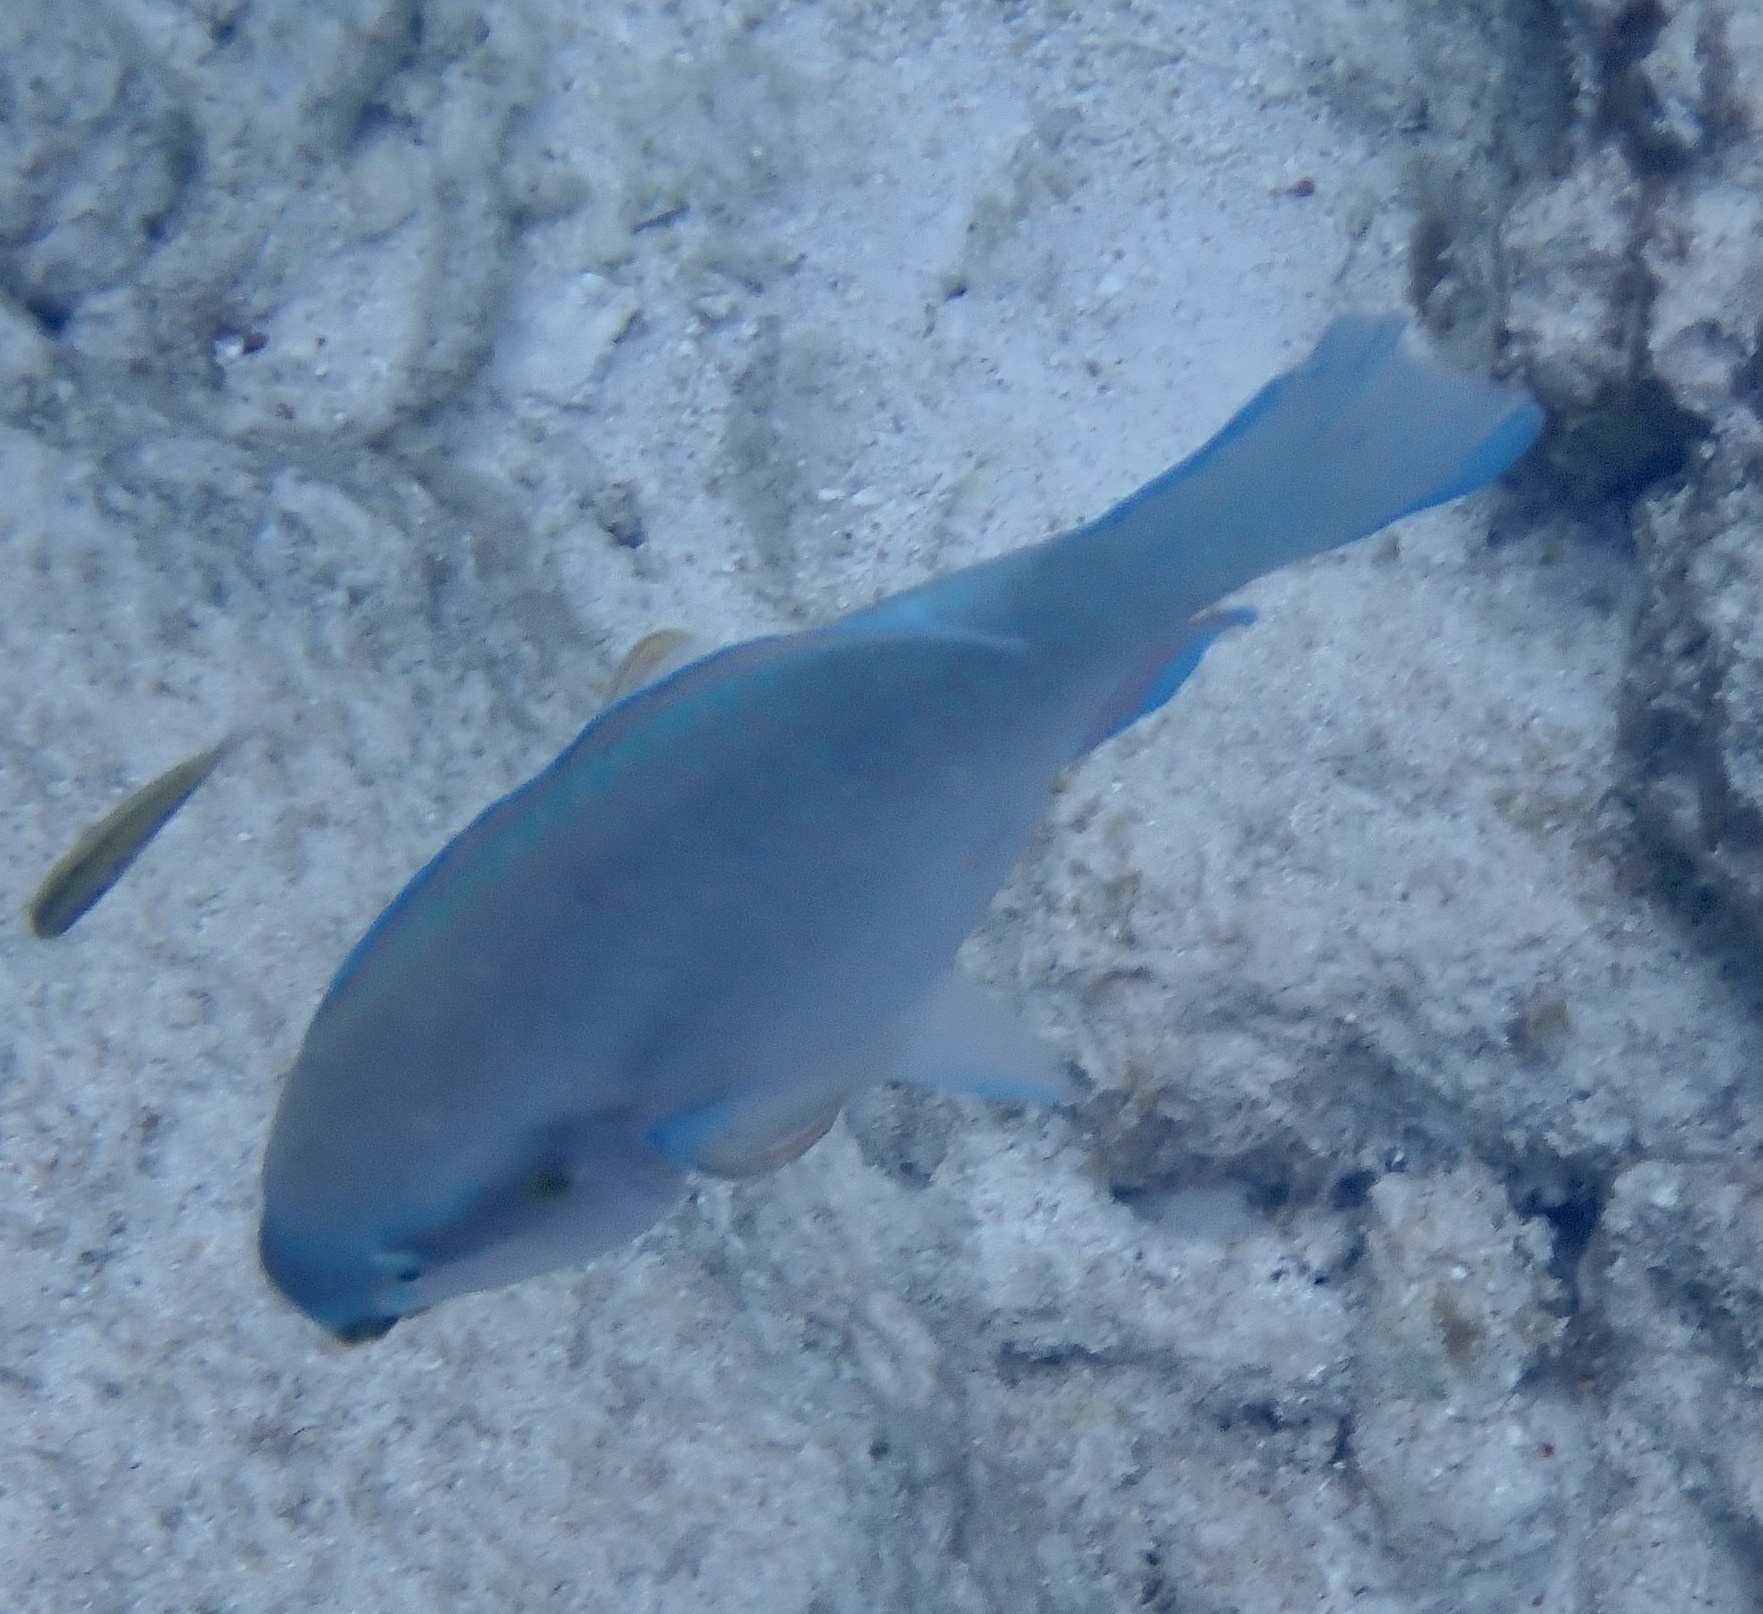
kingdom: Animalia
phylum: Chordata
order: Perciformes
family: Scaridae
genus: Scarus
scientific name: Scarus iseri
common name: Striped parrotfish
